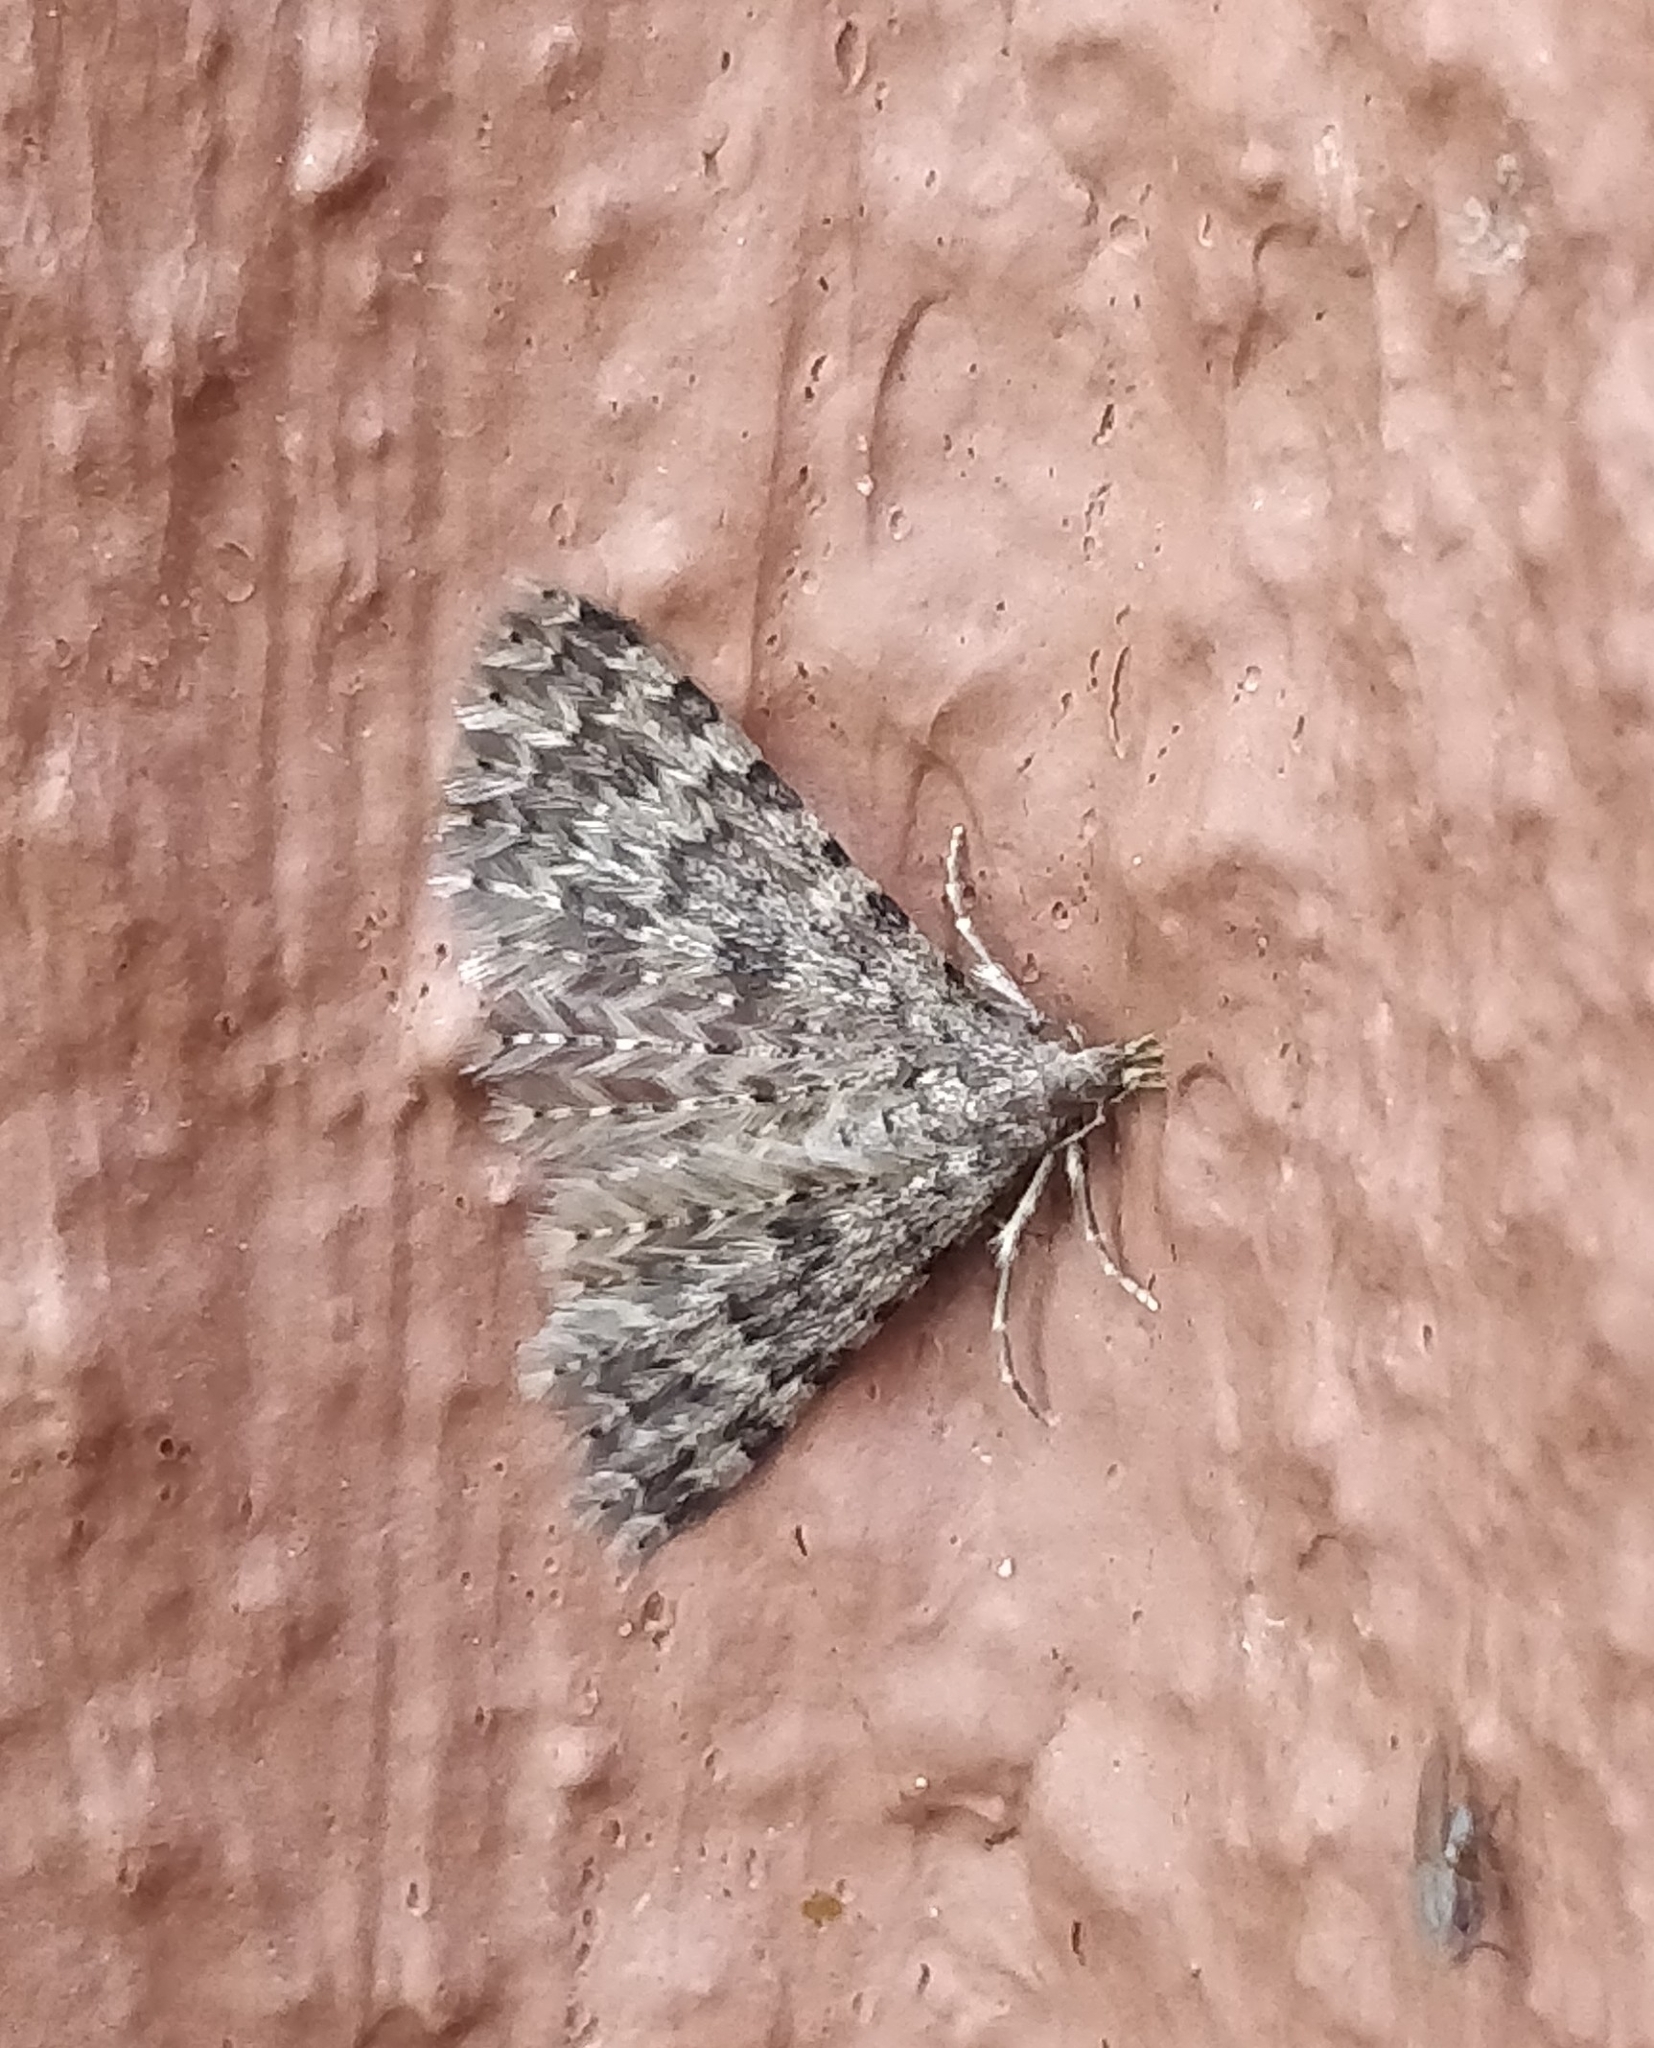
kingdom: Animalia
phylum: Arthropoda
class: Insecta
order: Lepidoptera
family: Alucitidae
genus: Alucita
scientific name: Alucita canariensis
